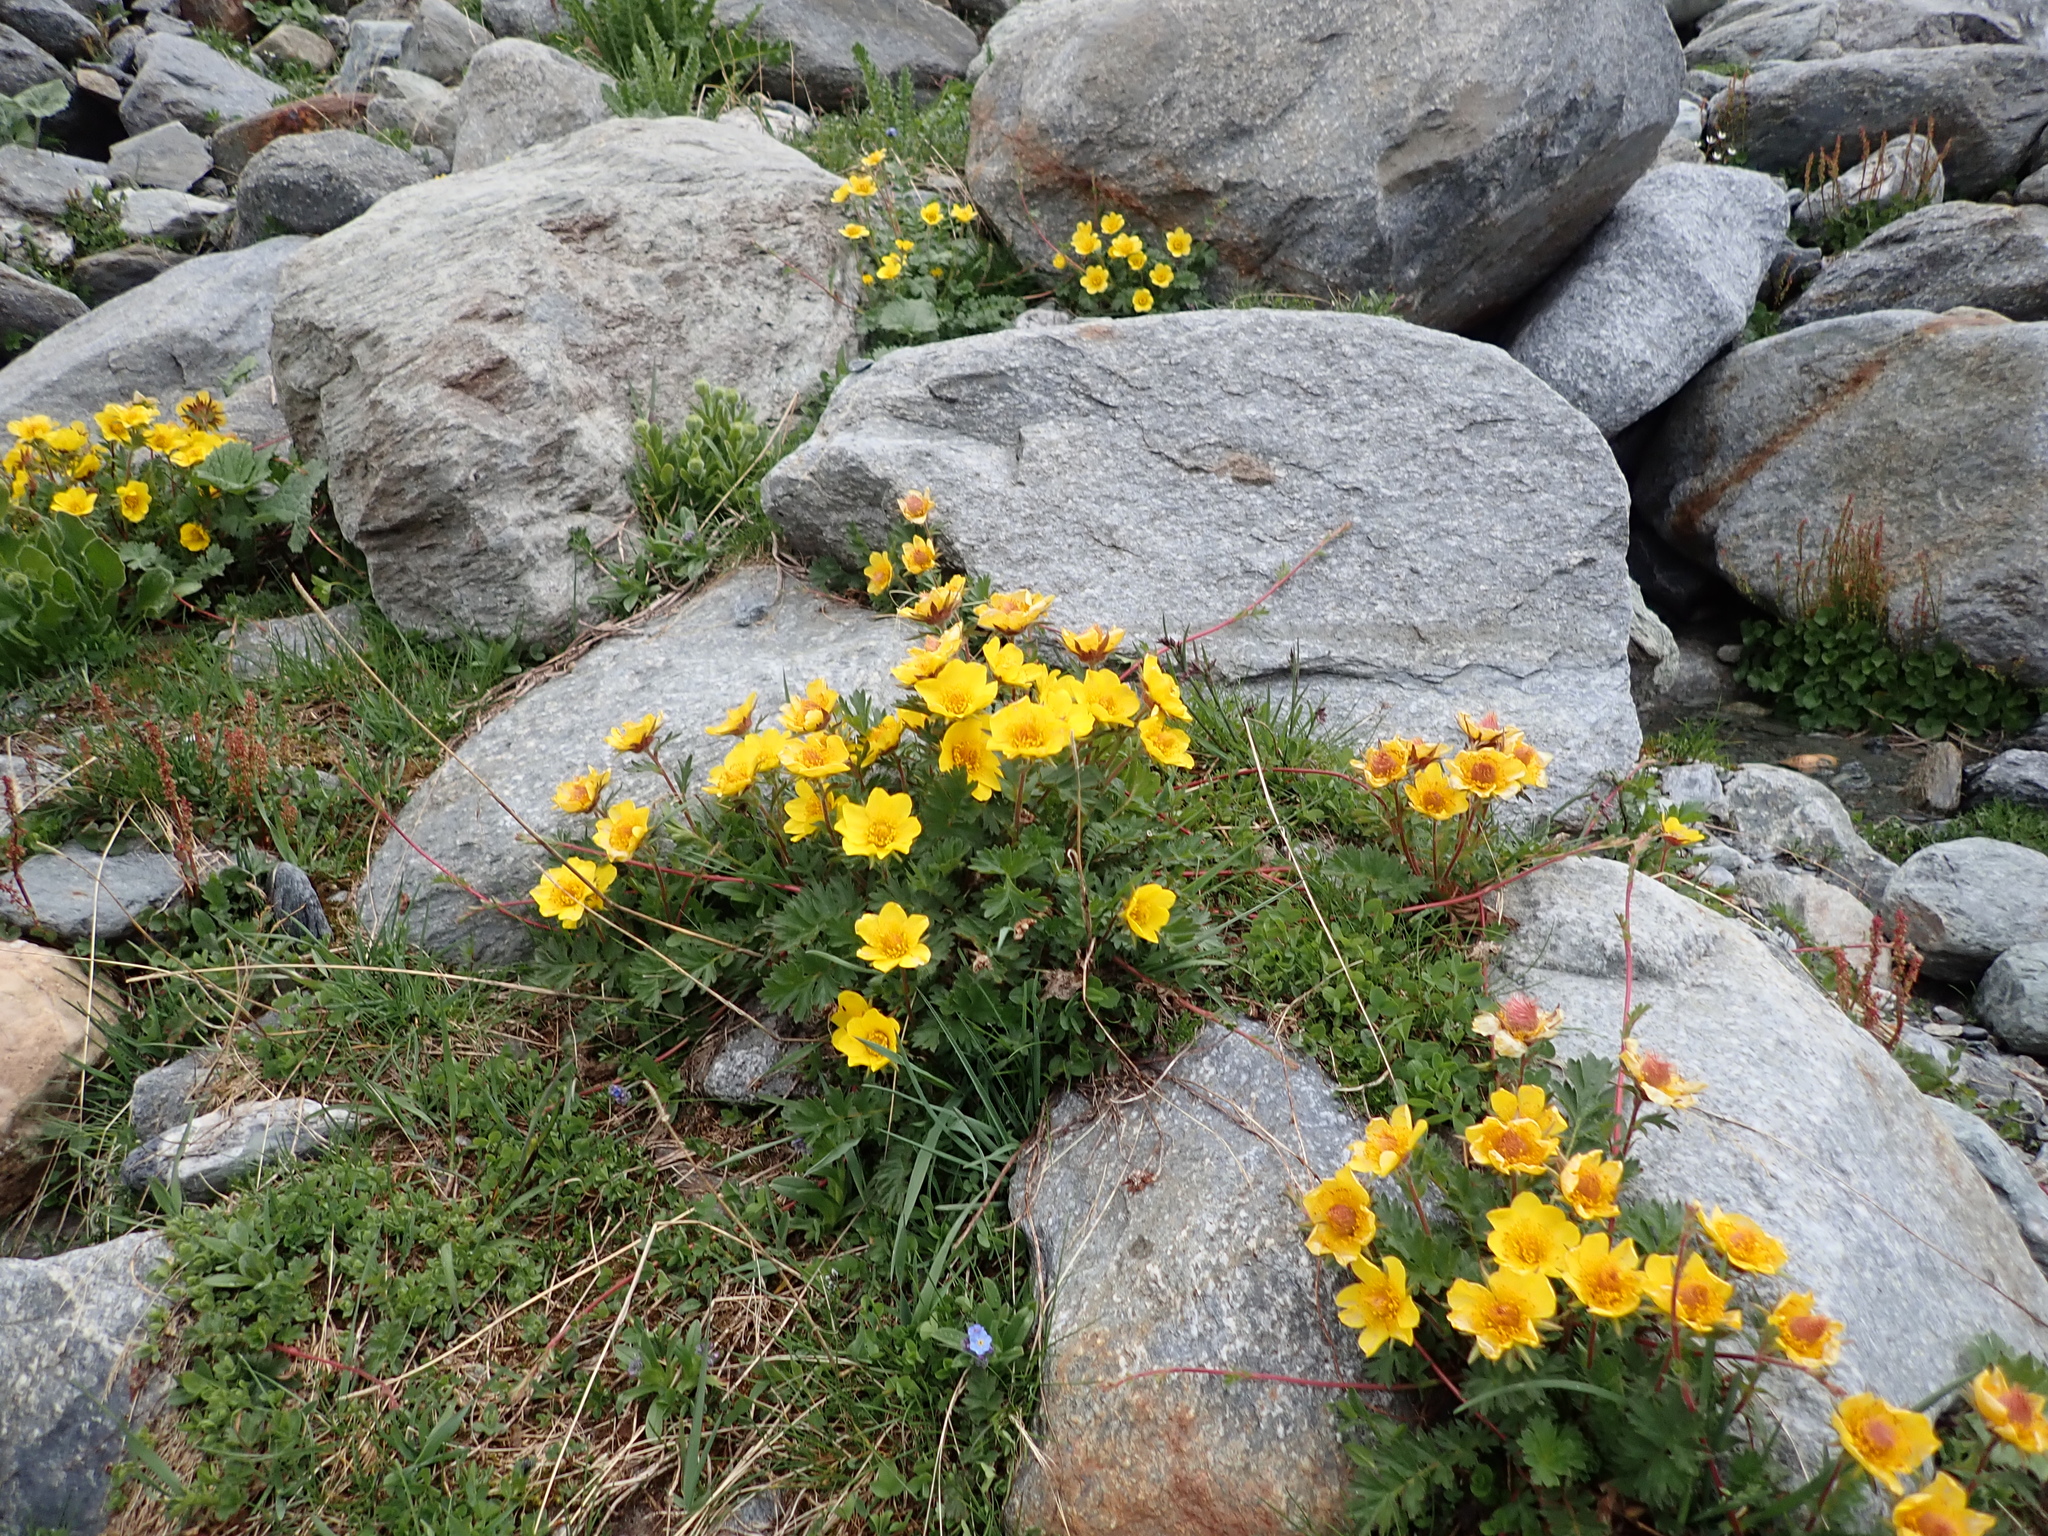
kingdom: Plantae
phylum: Tracheophyta
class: Magnoliopsida
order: Rosales
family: Rosaceae
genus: Geum
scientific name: Geum reptans
